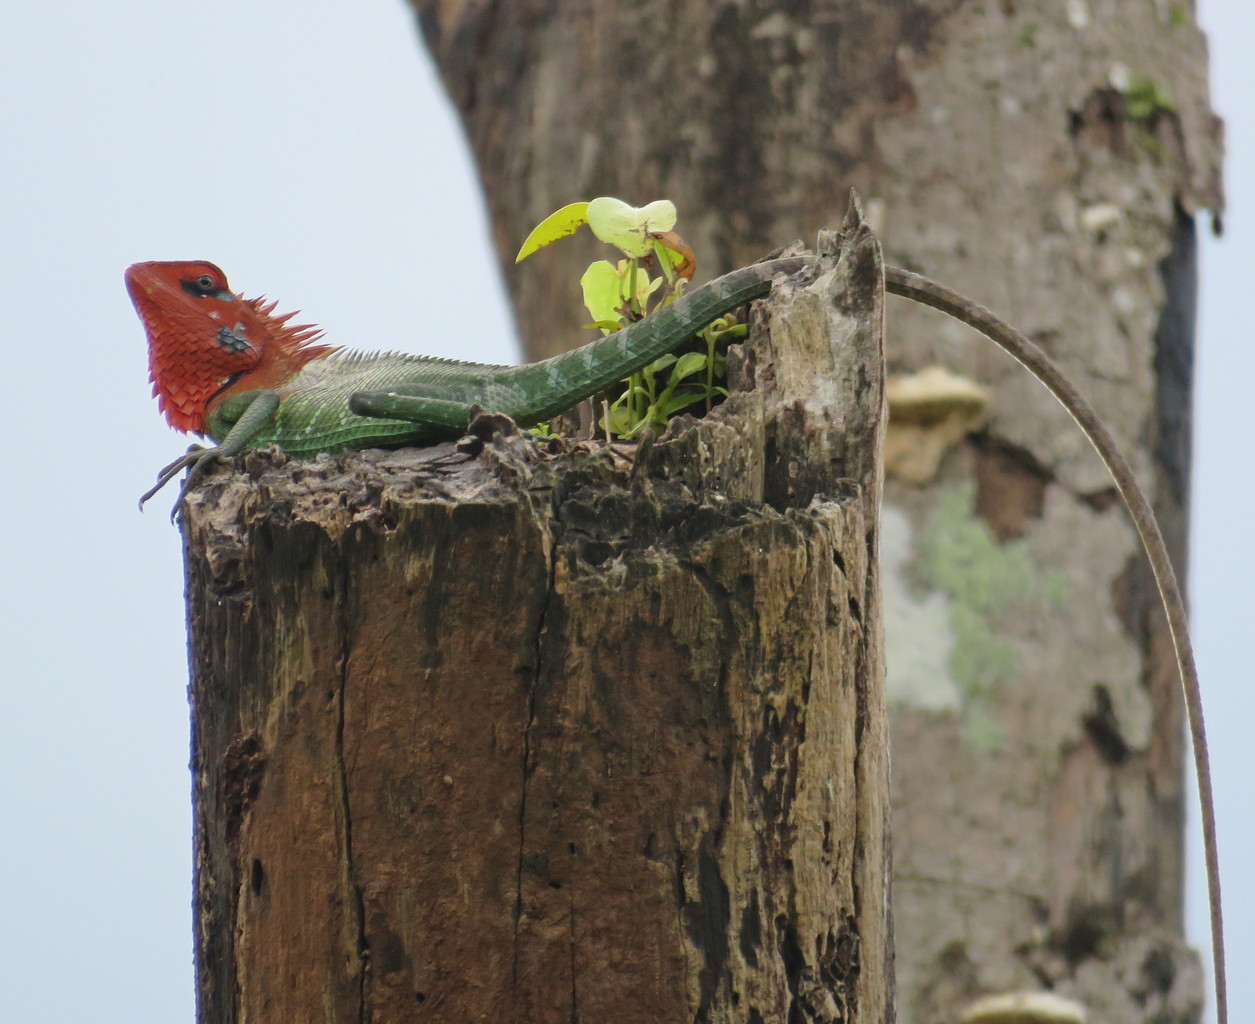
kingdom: Animalia
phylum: Chordata
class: Squamata
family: Agamidae
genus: Calotes
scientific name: Calotes calotes
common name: Common green forest lizard
